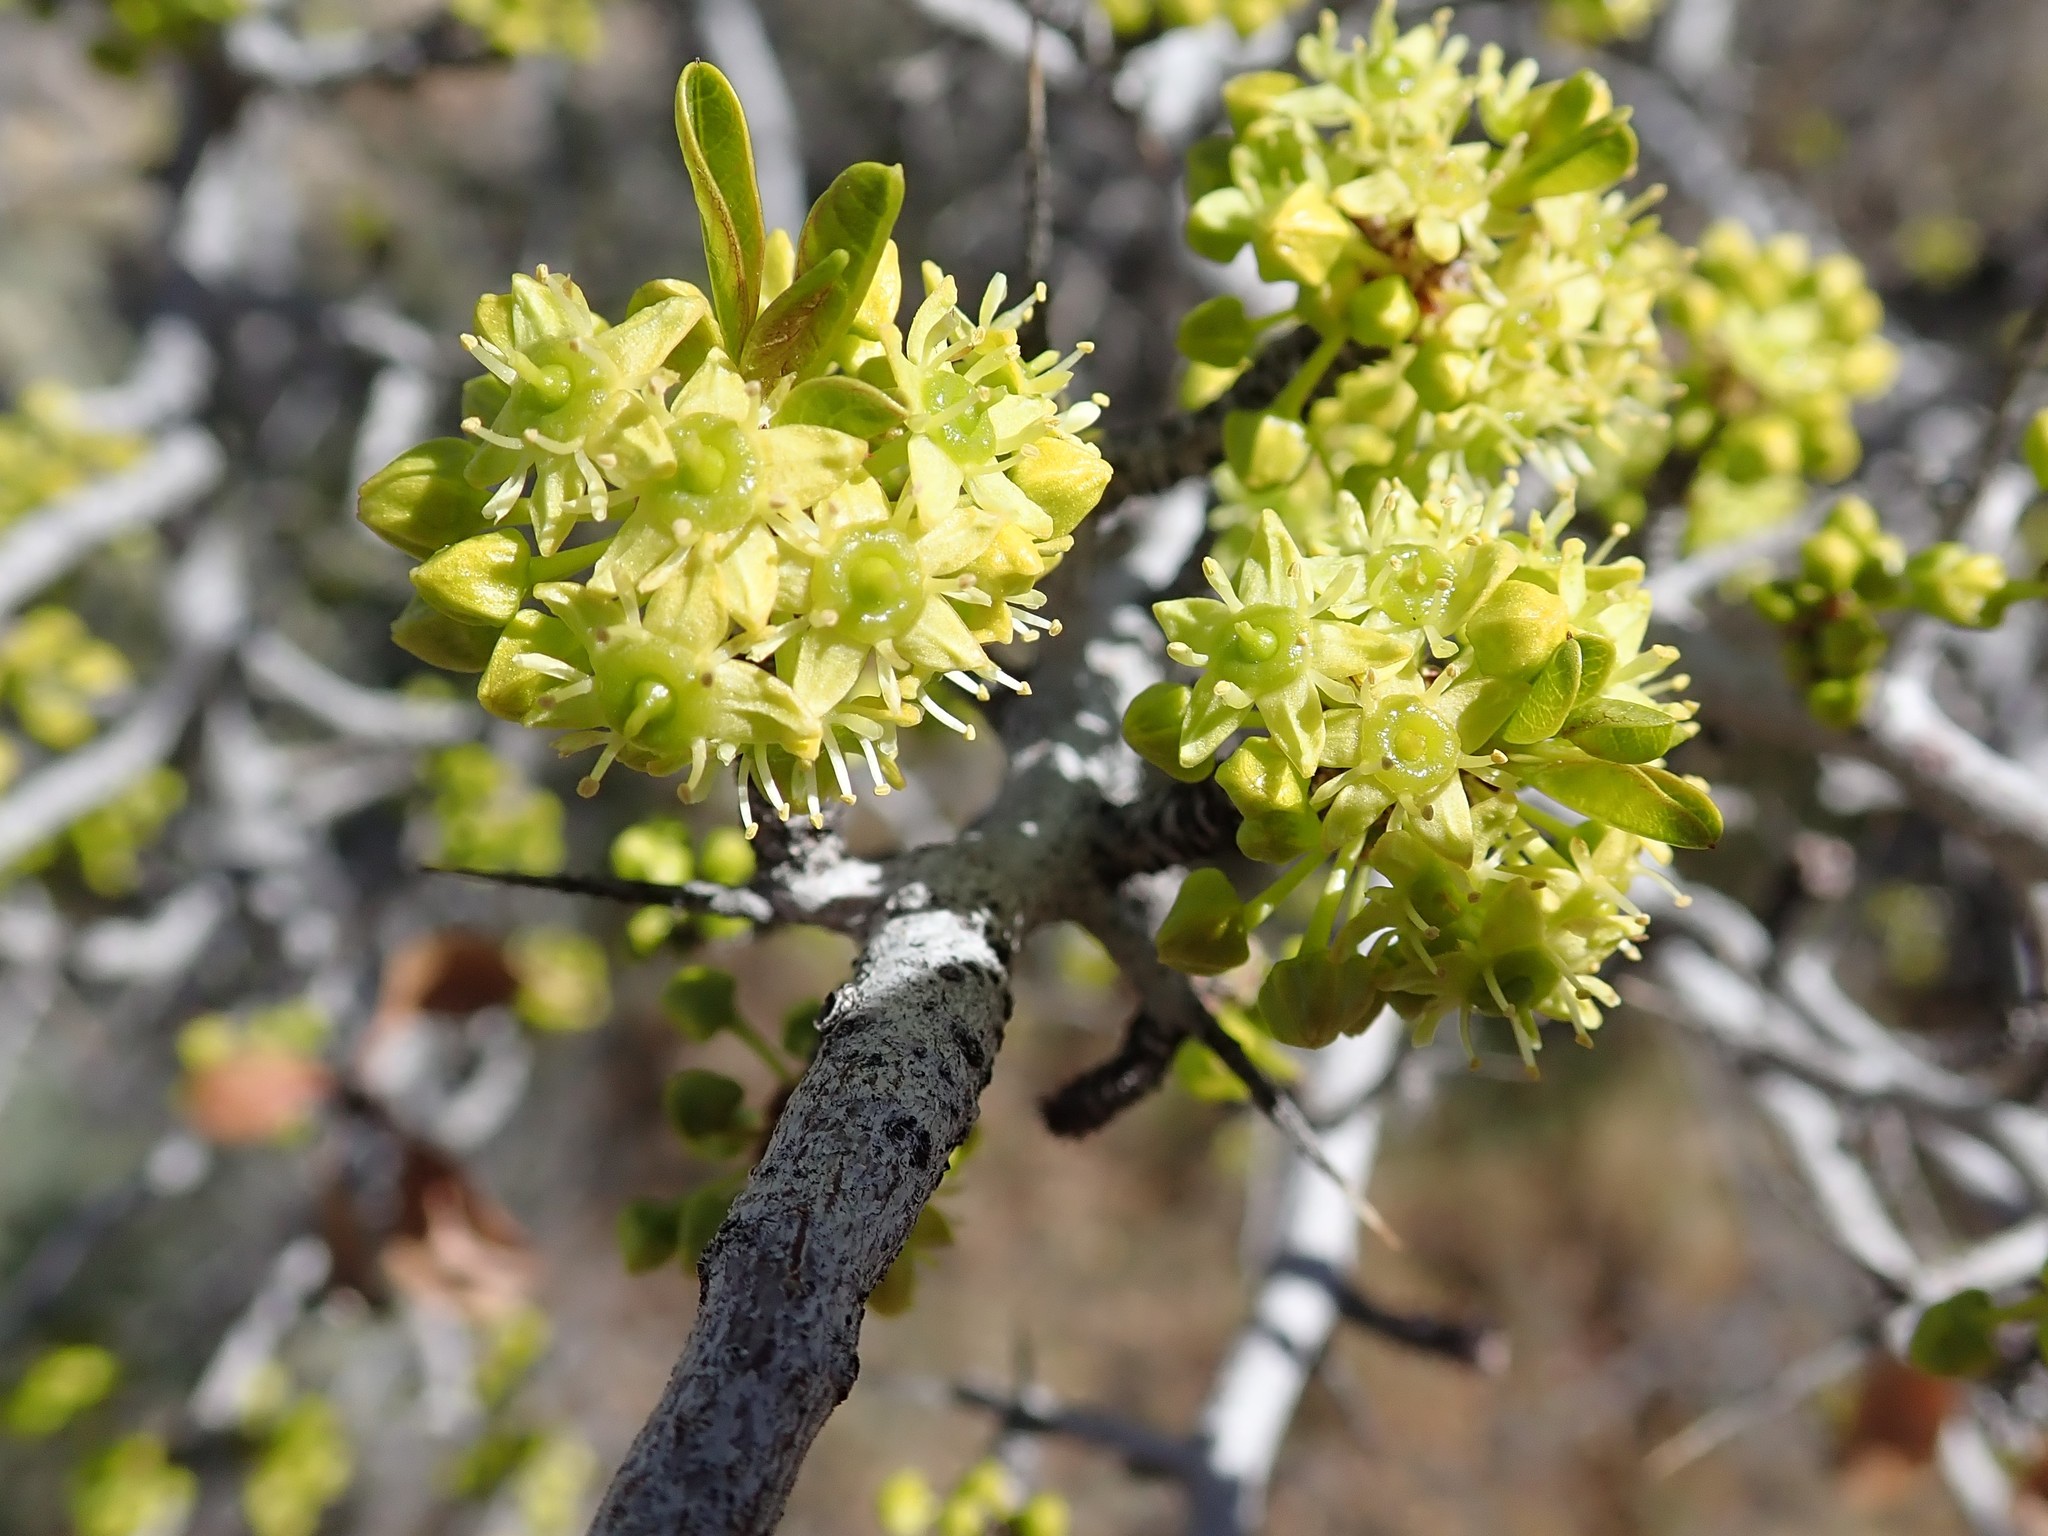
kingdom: Plantae
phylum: Tracheophyta
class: Magnoliopsida
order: Rosales
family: Rhamnaceae
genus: Pseudoziziphus
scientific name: Pseudoziziphus parryi
